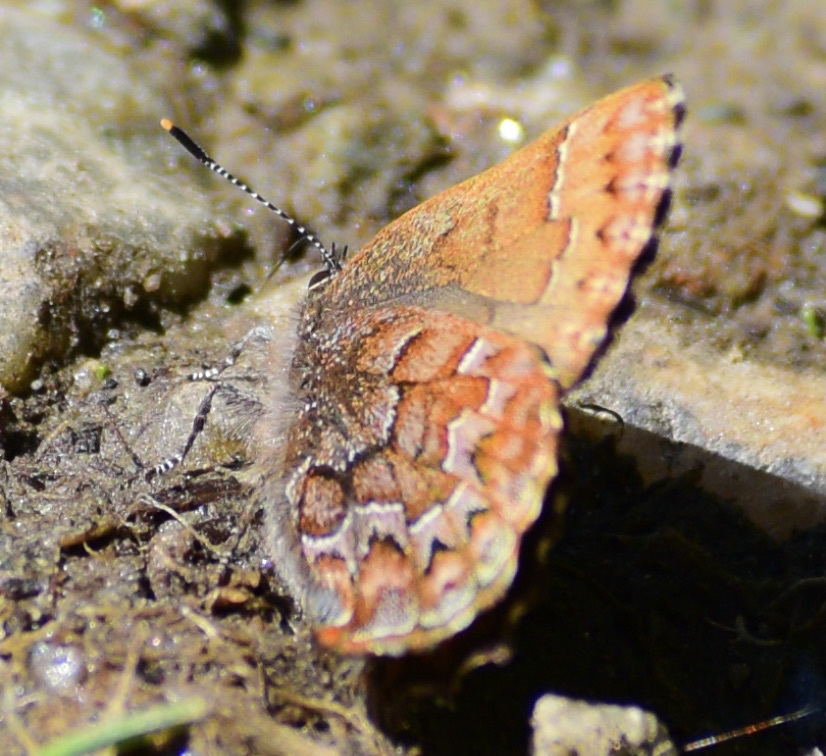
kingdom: Animalia
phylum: Arthropoda
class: Insecta
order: Lepidoptera
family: Lycaenidae
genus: Incisalia
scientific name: Incisalia niphon
